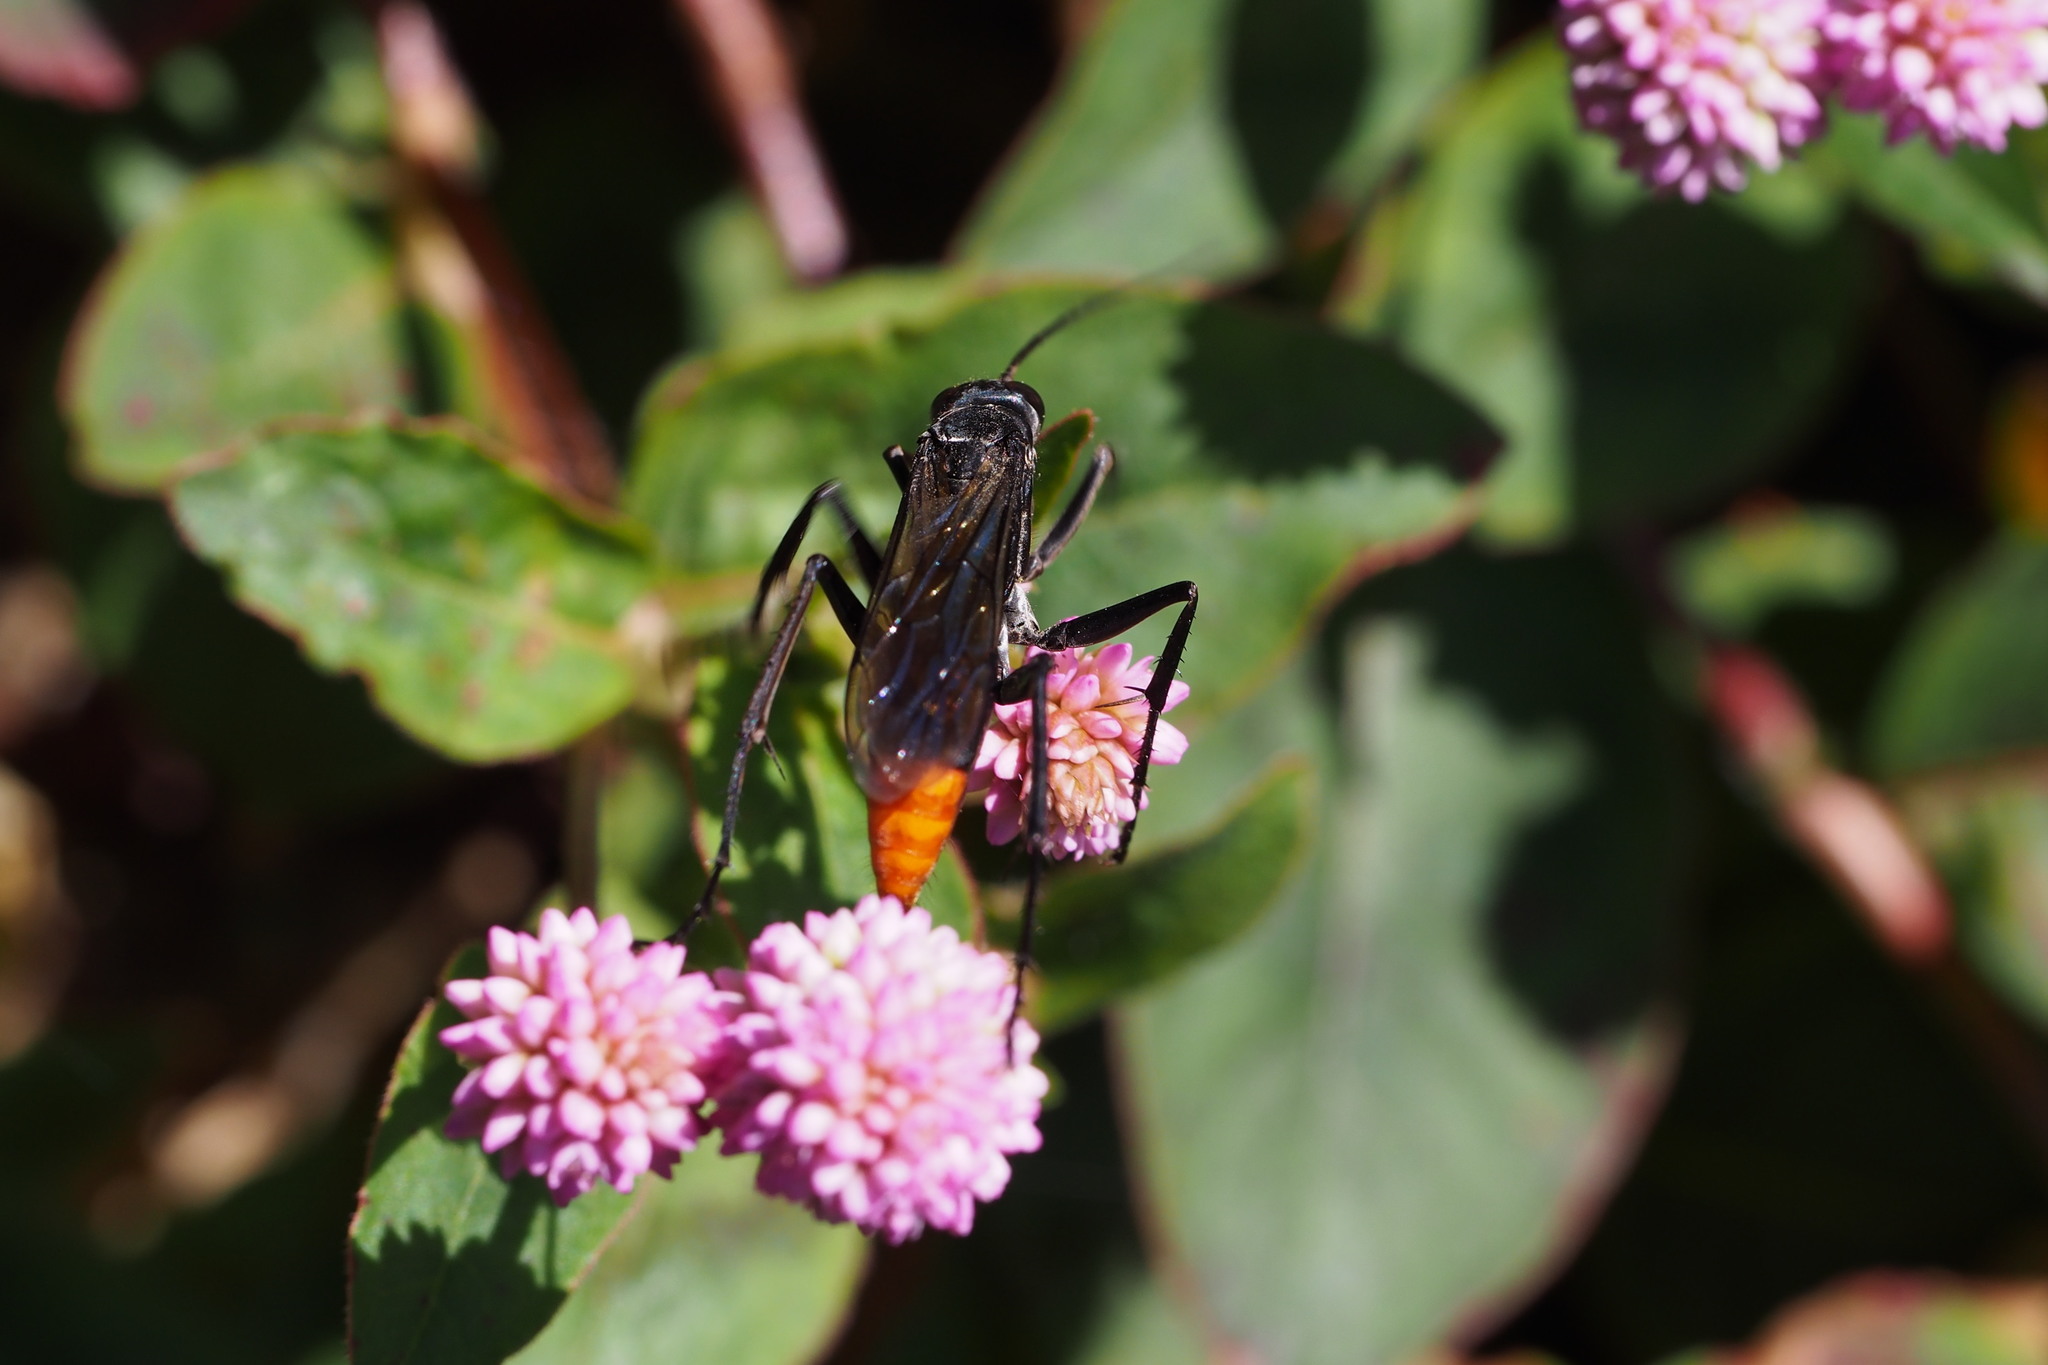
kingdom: Animalia
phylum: Arthropoda
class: Insecta
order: Hymenoptera
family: Pompilidae
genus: Tachypompilus
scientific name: Tachypompilus analis
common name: Spider wasp
